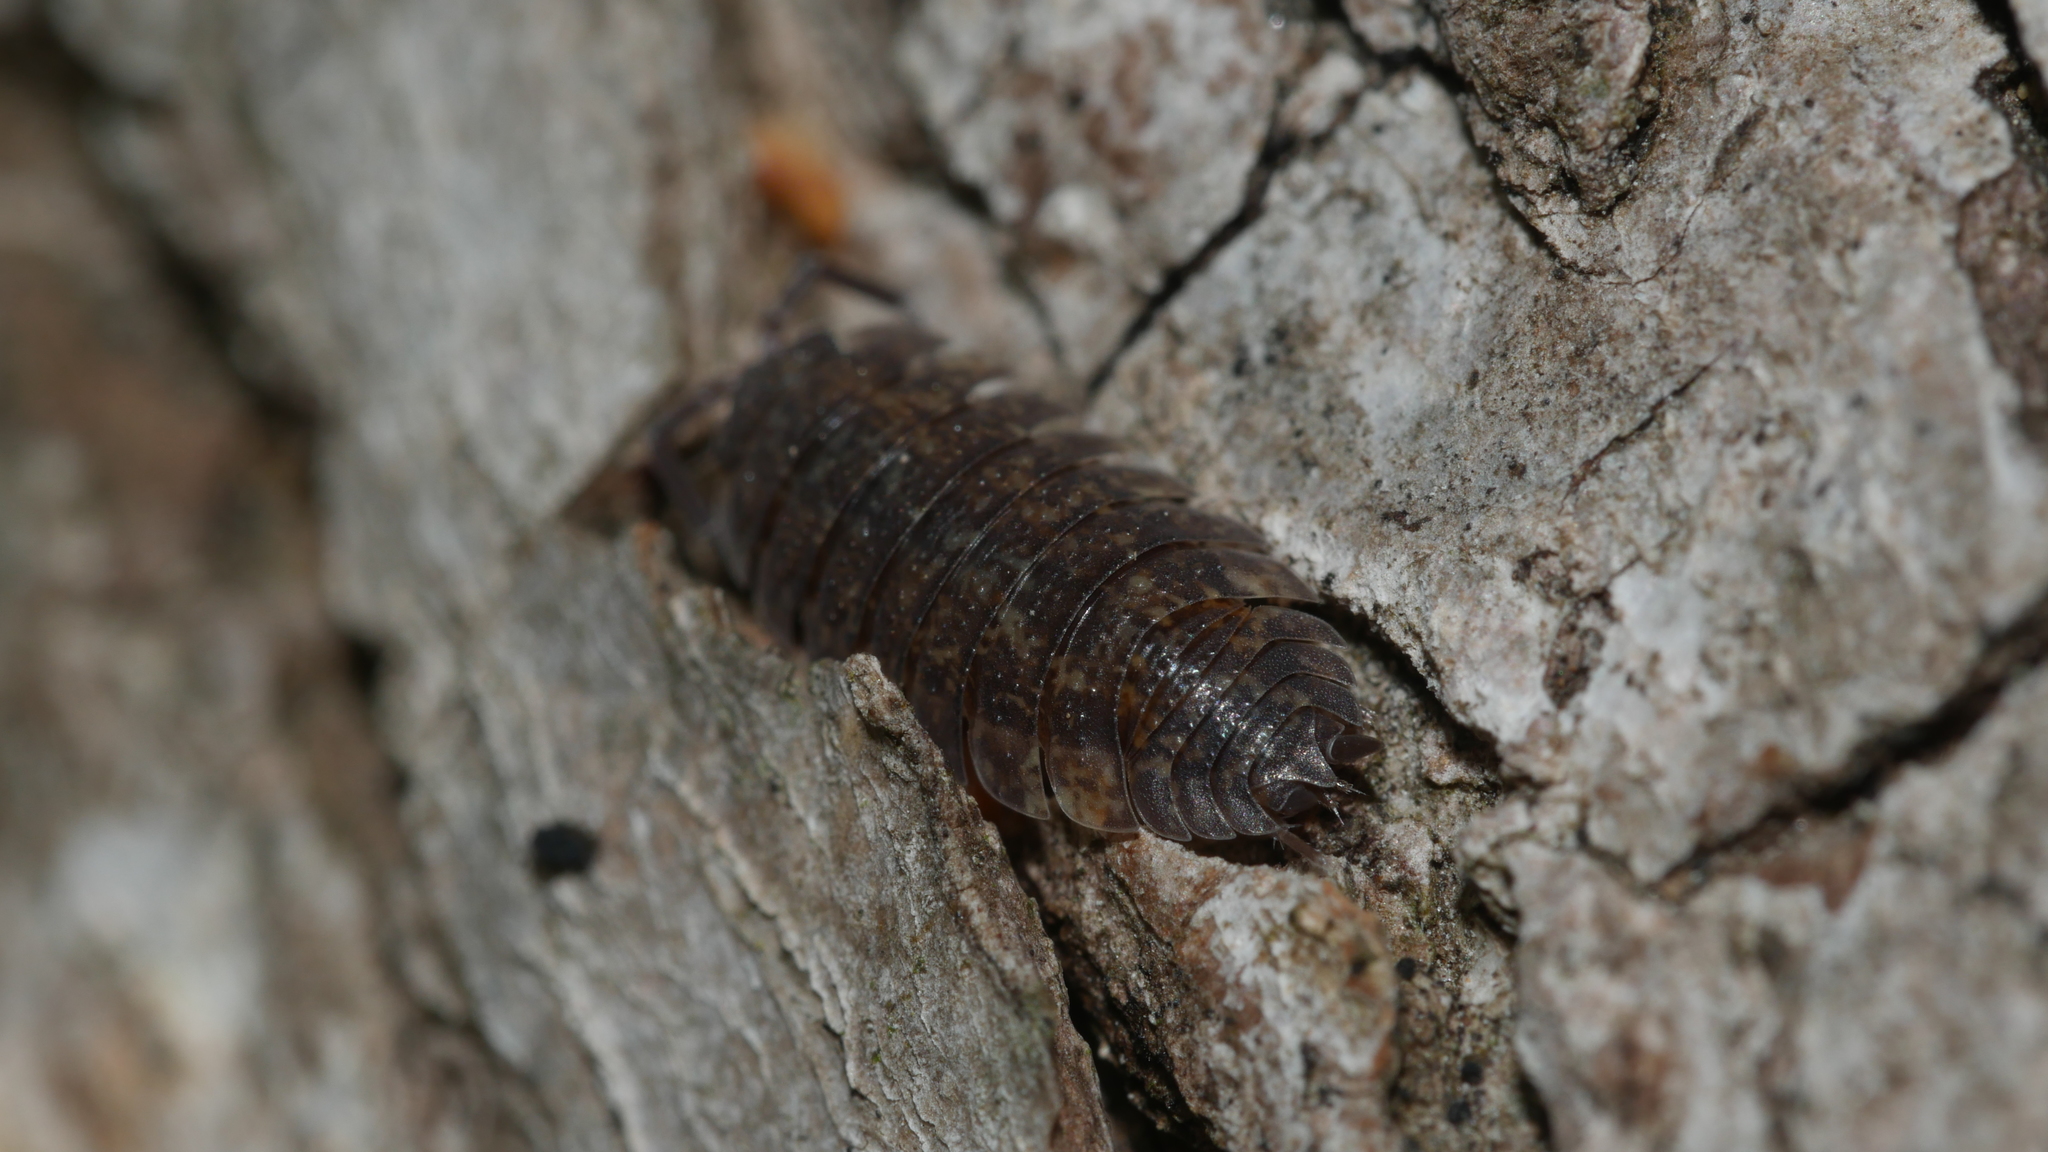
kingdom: Animalia
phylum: Arthropoda
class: Malacostraca
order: Isopoda
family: Porcellionidae
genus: Porcellio
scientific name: Porcellio scaber
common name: Common rough woodlouse
